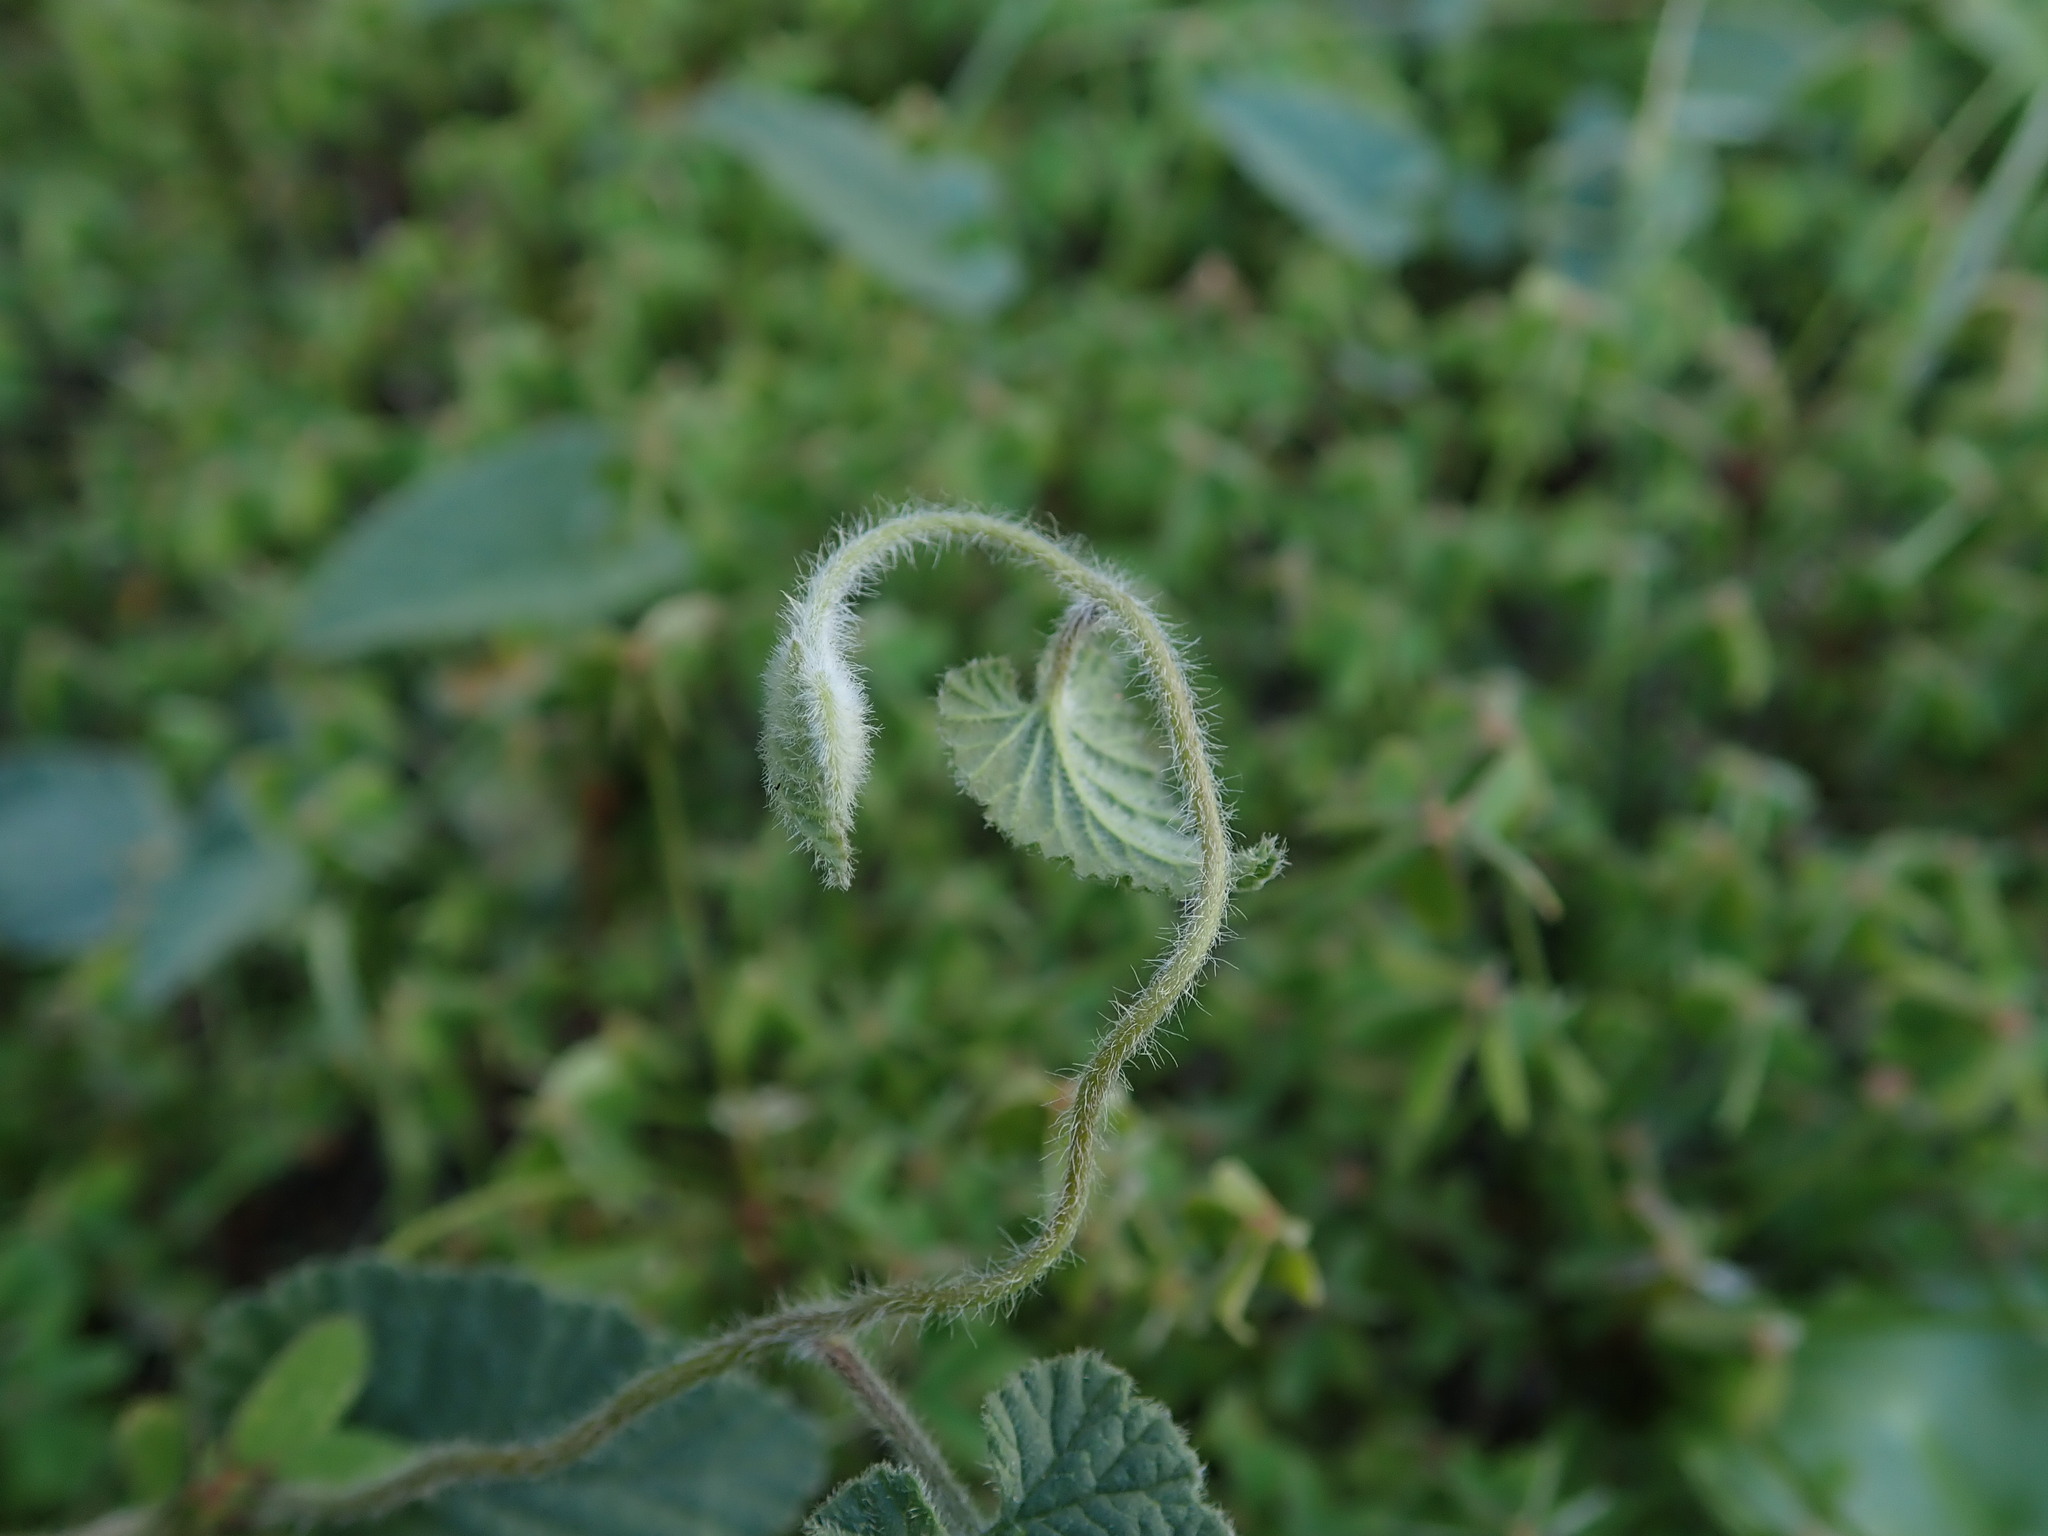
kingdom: Plantae
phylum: Tracheophyta
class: Magnoliopsida
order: Solanales
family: Convolvulaceae
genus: Convolvulus
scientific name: Convolvulus althaeoides
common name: Mallow bindweed
